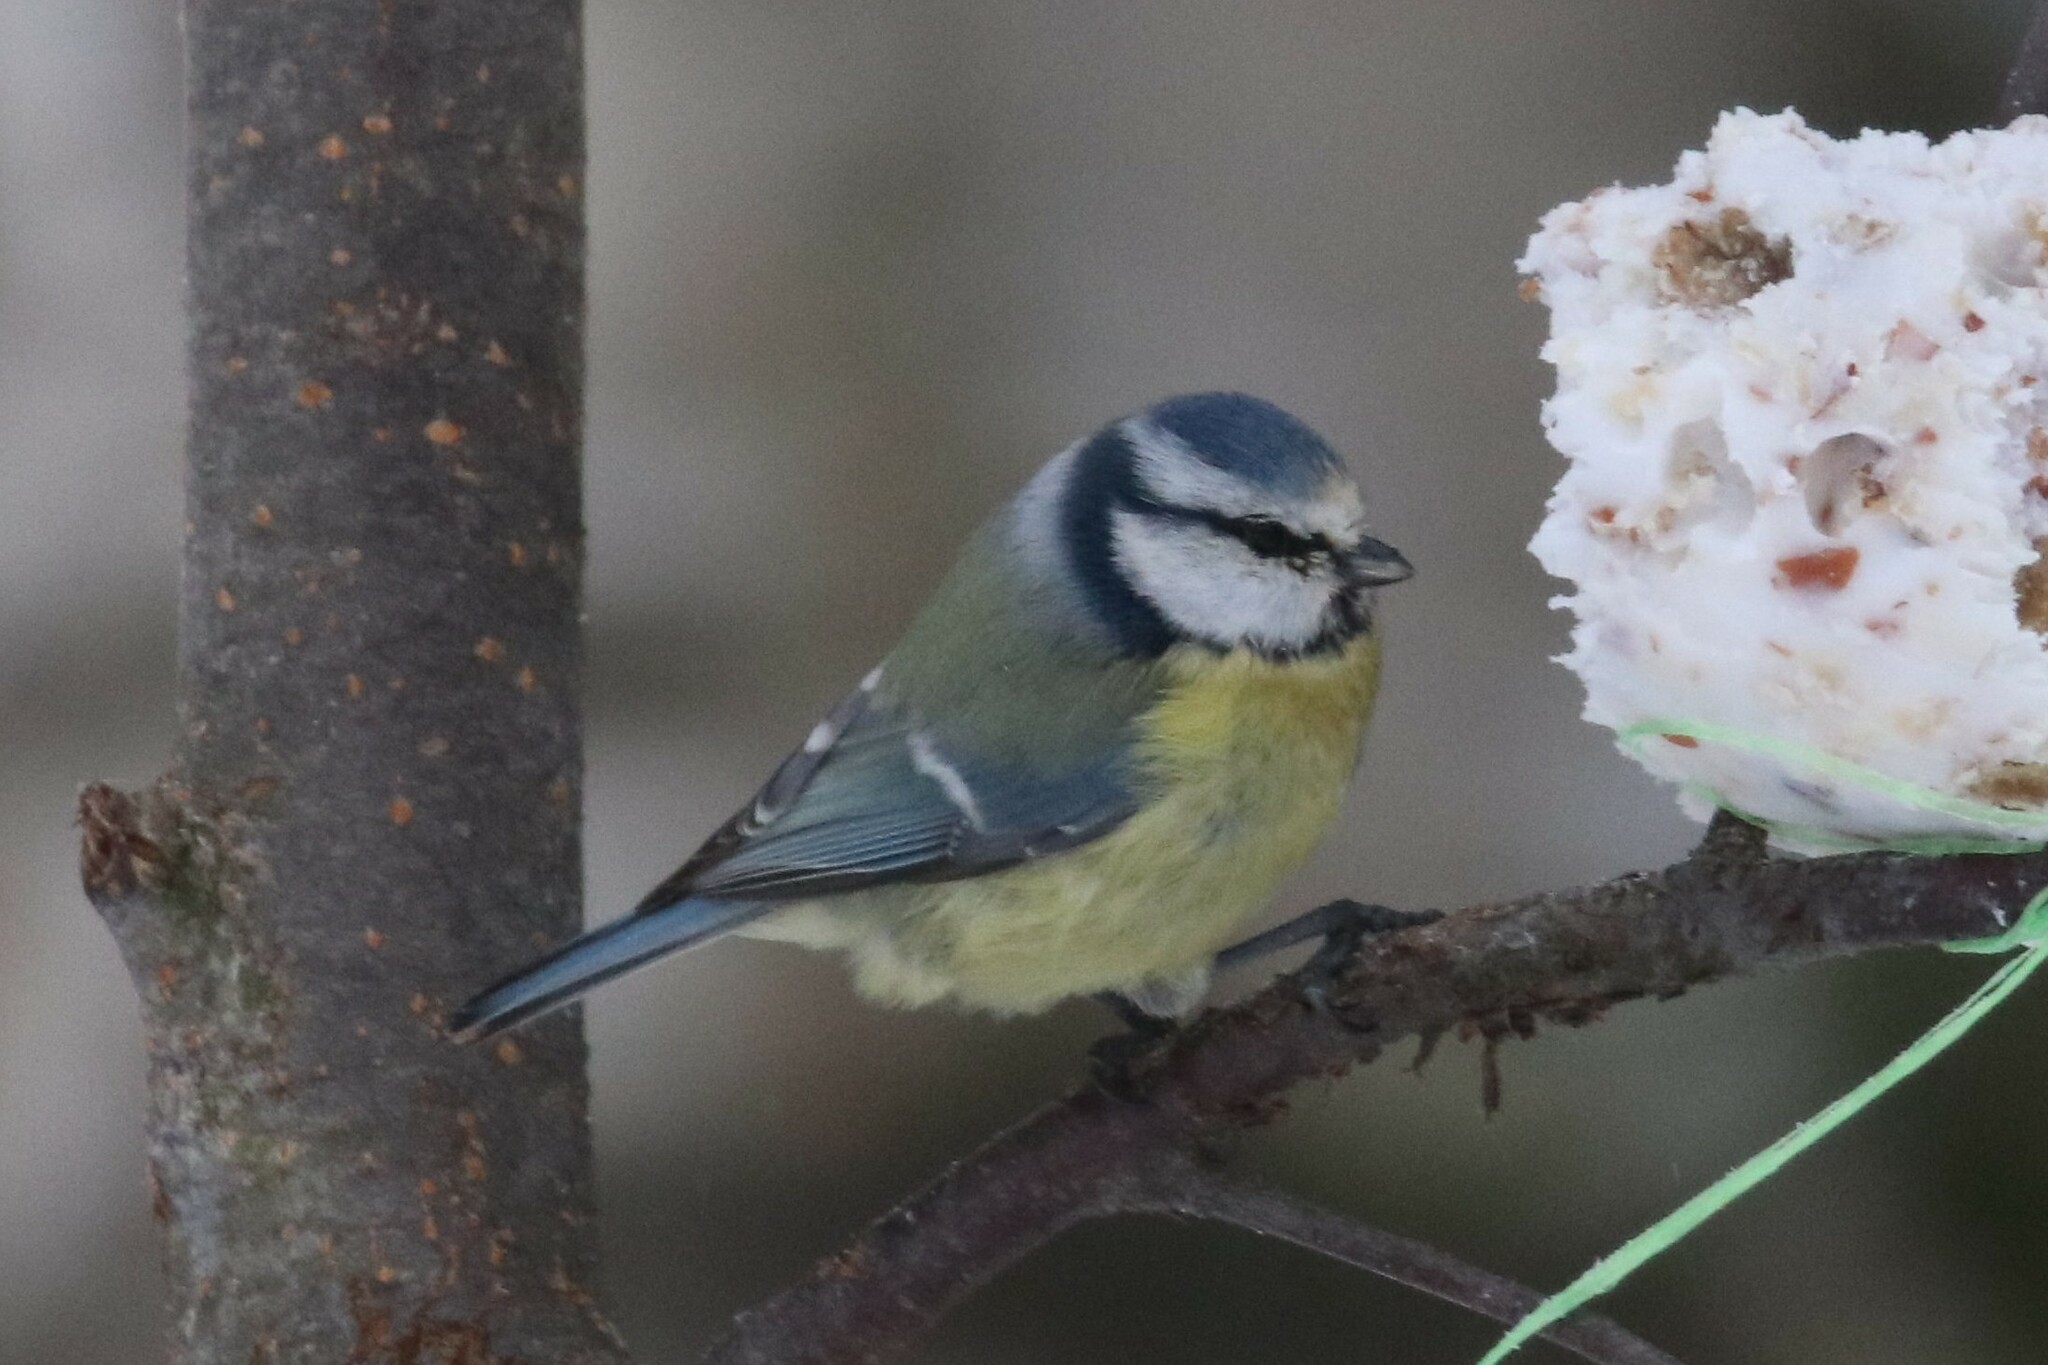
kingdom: Animalia
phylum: Chordata
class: Aves
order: Passeriformes
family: Paridae
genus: Cyanistes
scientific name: Cyanistes caeruleus
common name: Eurasian blue tit
